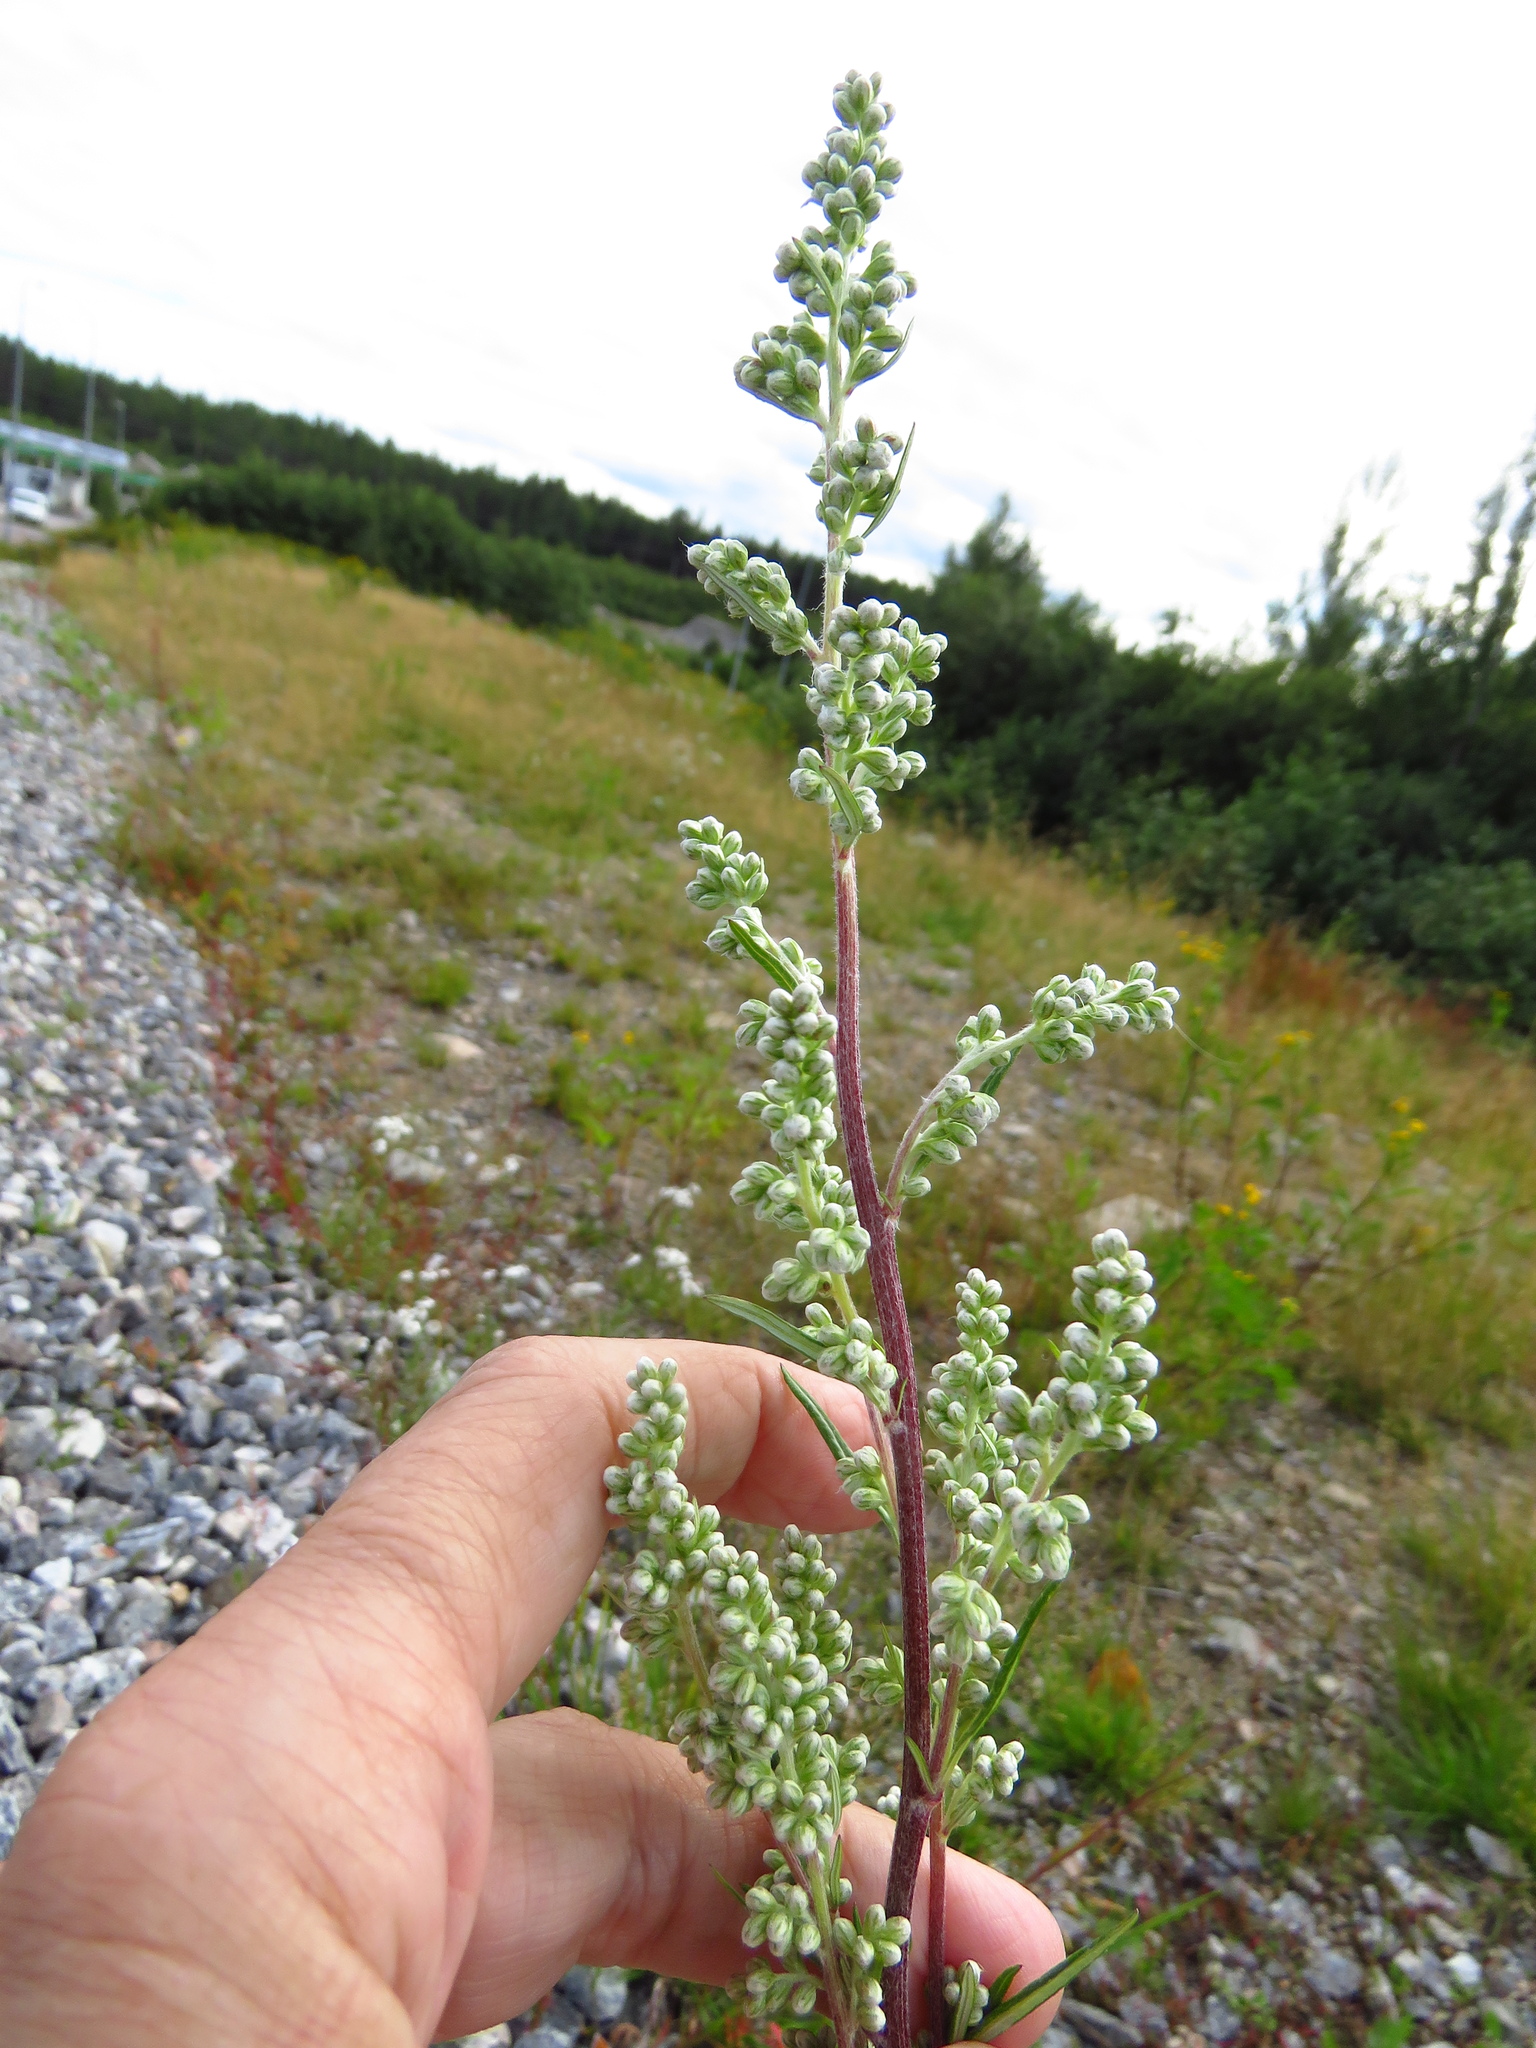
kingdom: Plantae
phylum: Tracheophyta
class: Magnoliopsida
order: Asterales
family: Asteraceae
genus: Artemisia
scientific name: Artemisia vulgaris
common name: Mugwort
